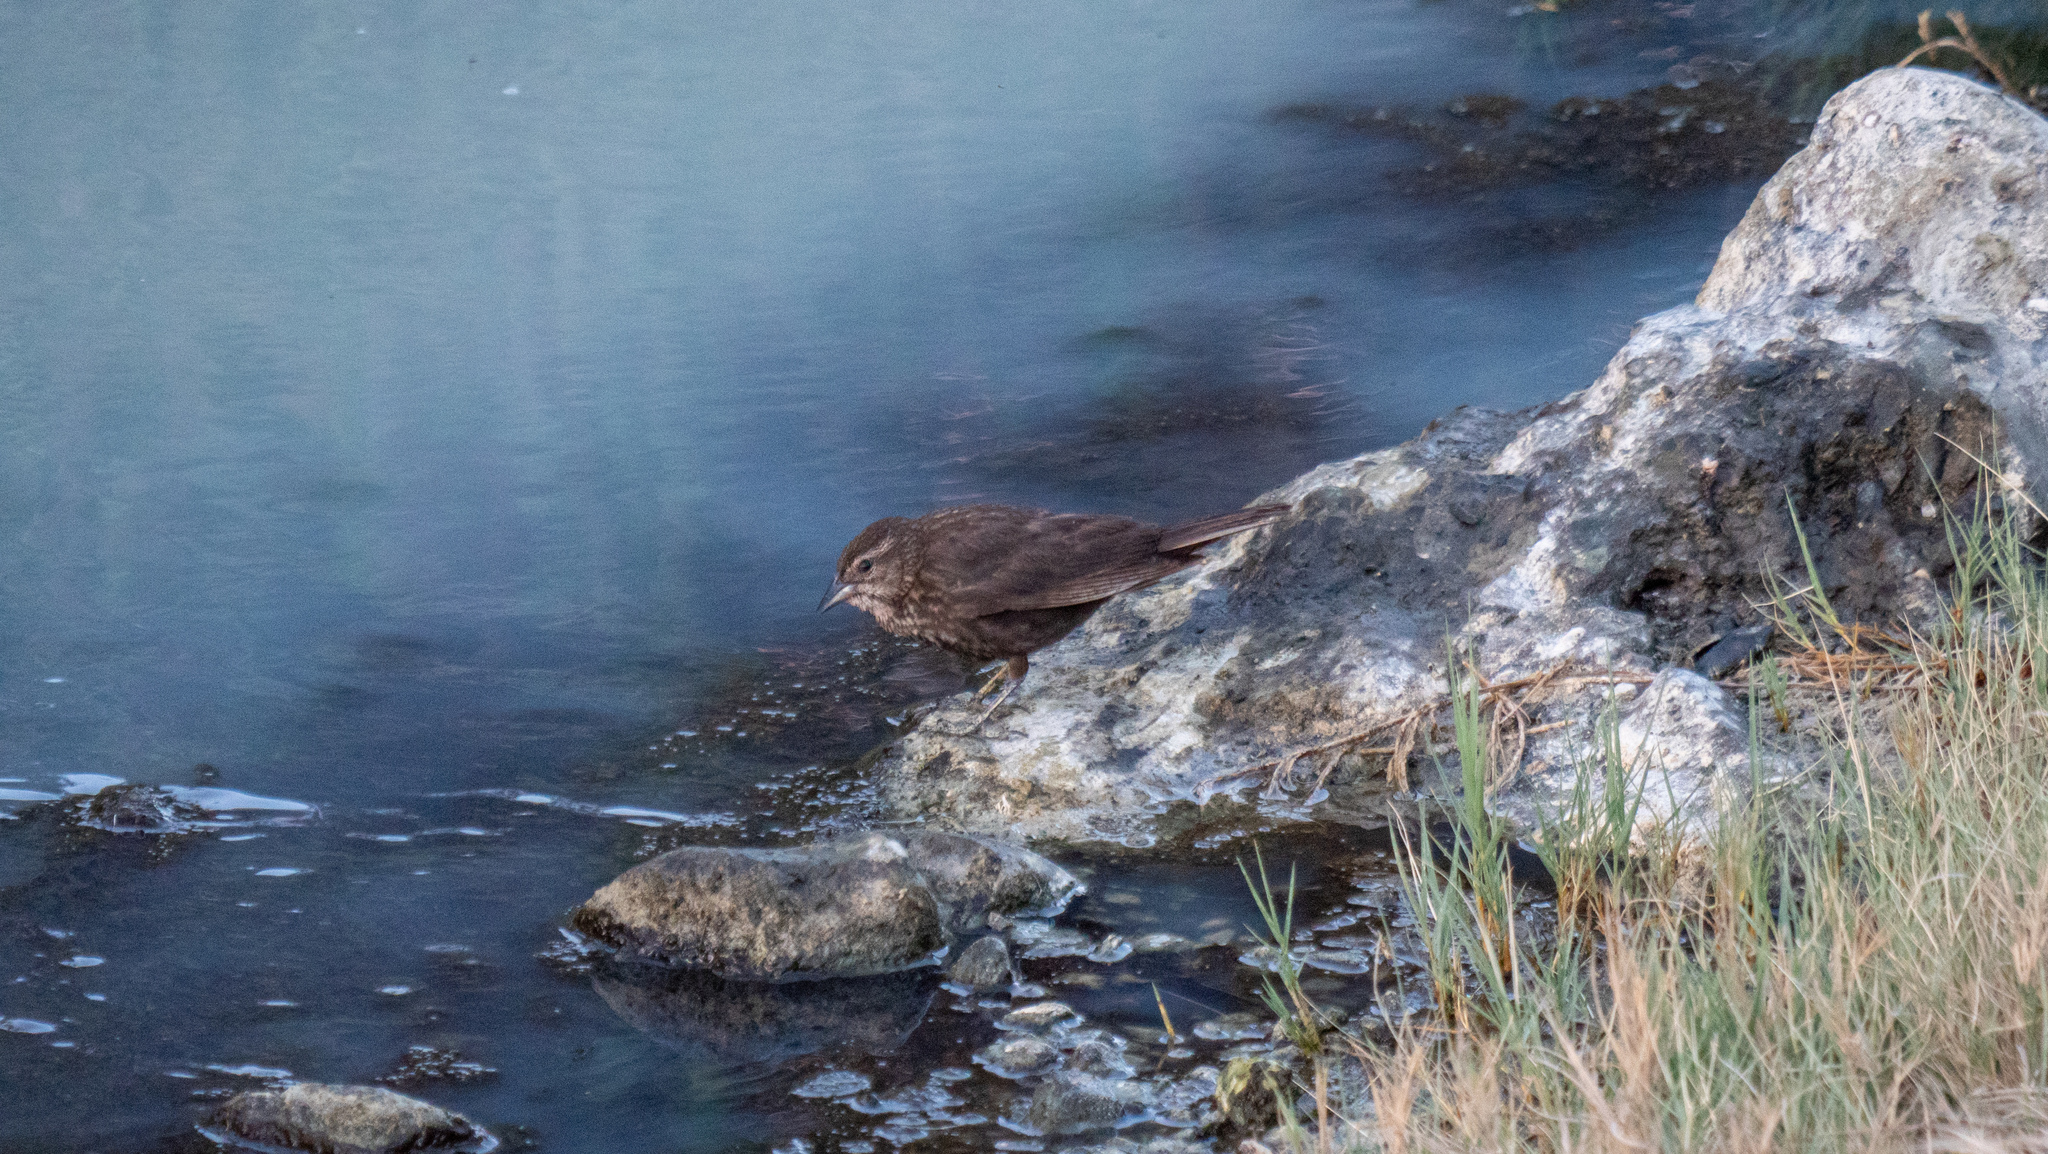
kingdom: Animalia
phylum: Chordata
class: Aves
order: Passeriformes
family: Icteridae
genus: Agelaius
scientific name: Agelaius phoeniceus
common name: Red-winged blackbird
